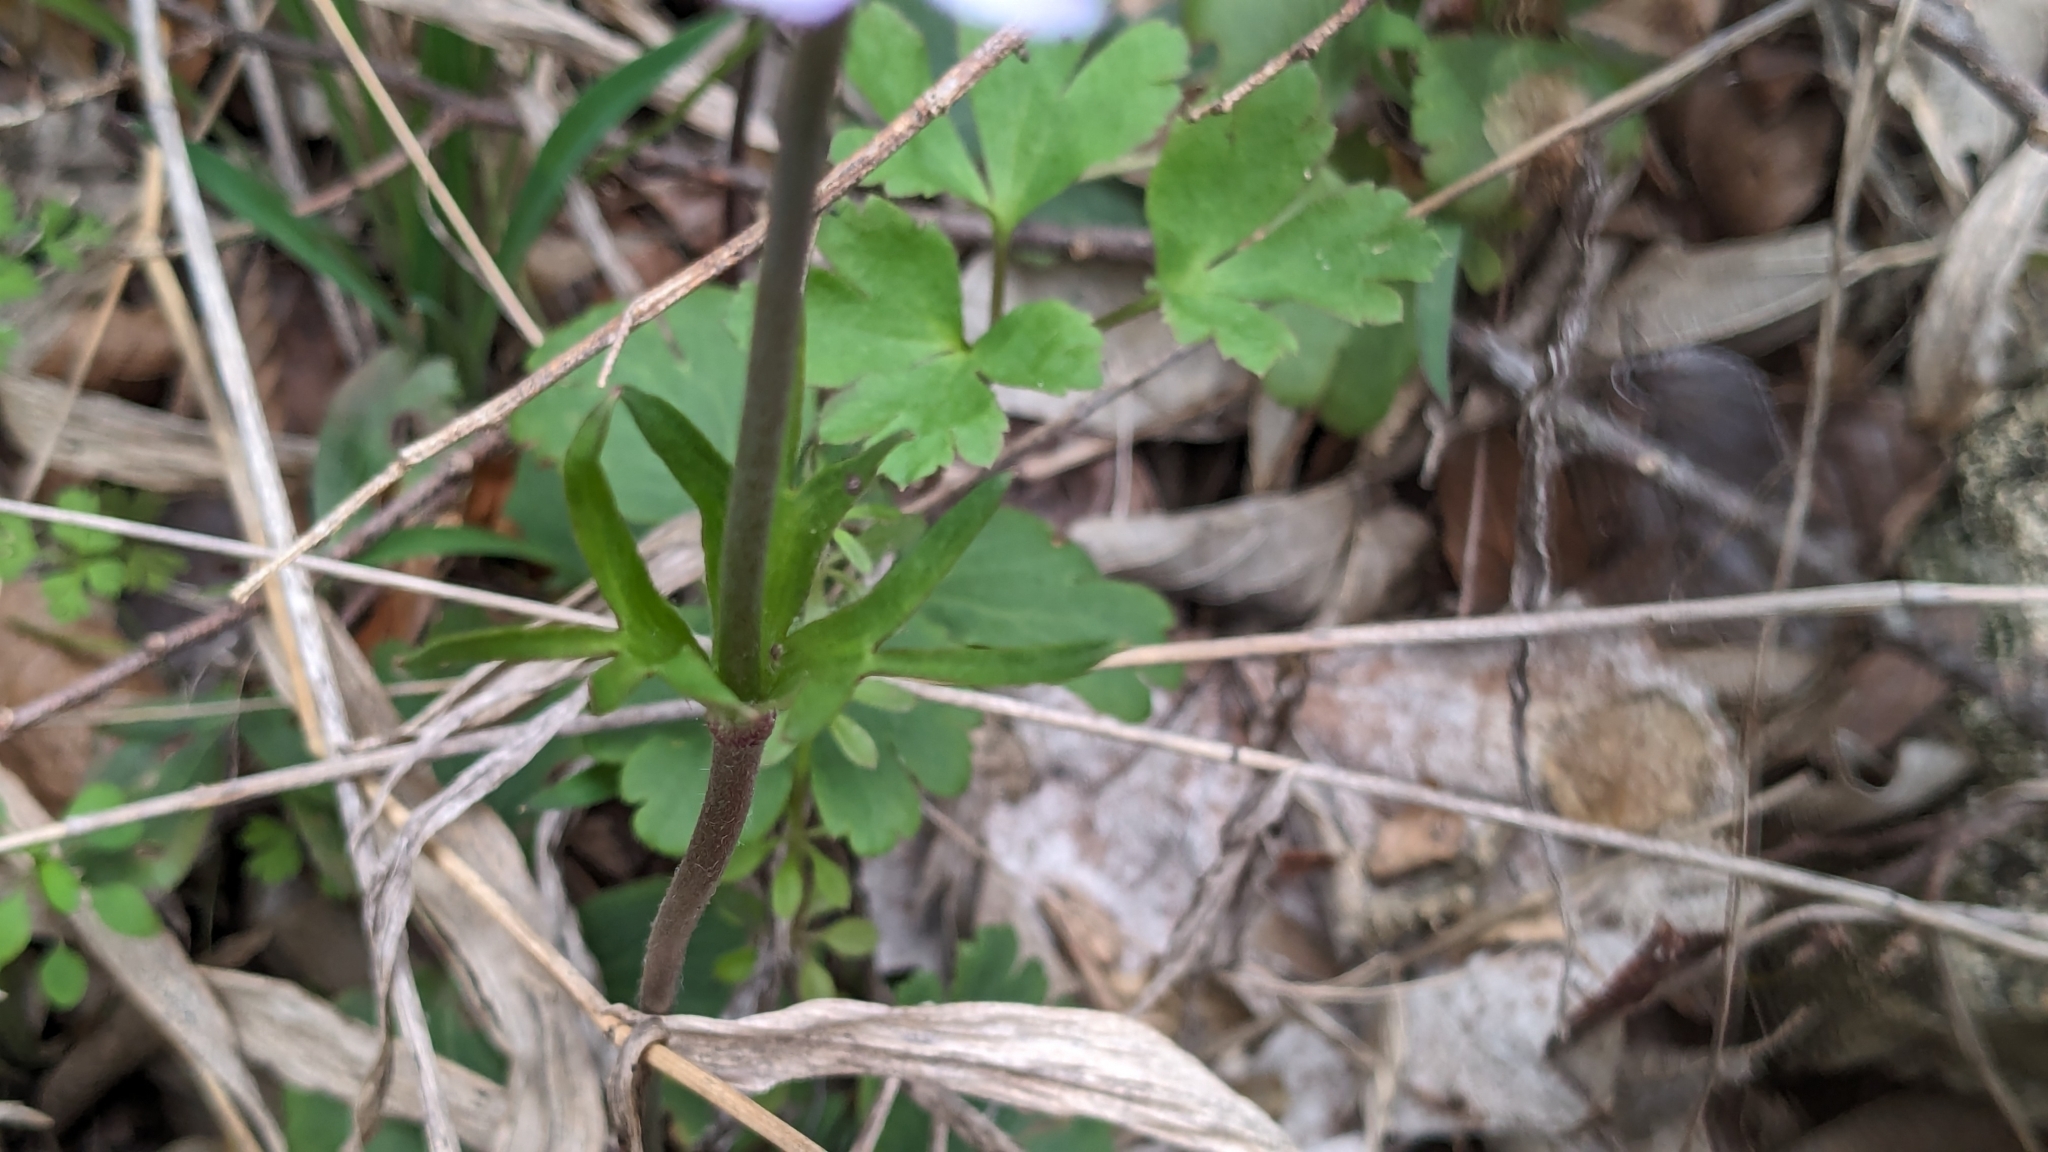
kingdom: Plantae
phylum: Tracheophyta
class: Magnoliopsida
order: Ranunculales
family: Ranunculaceae
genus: Anemone
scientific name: Anemone berlandieri
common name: Ten-petal anemone
